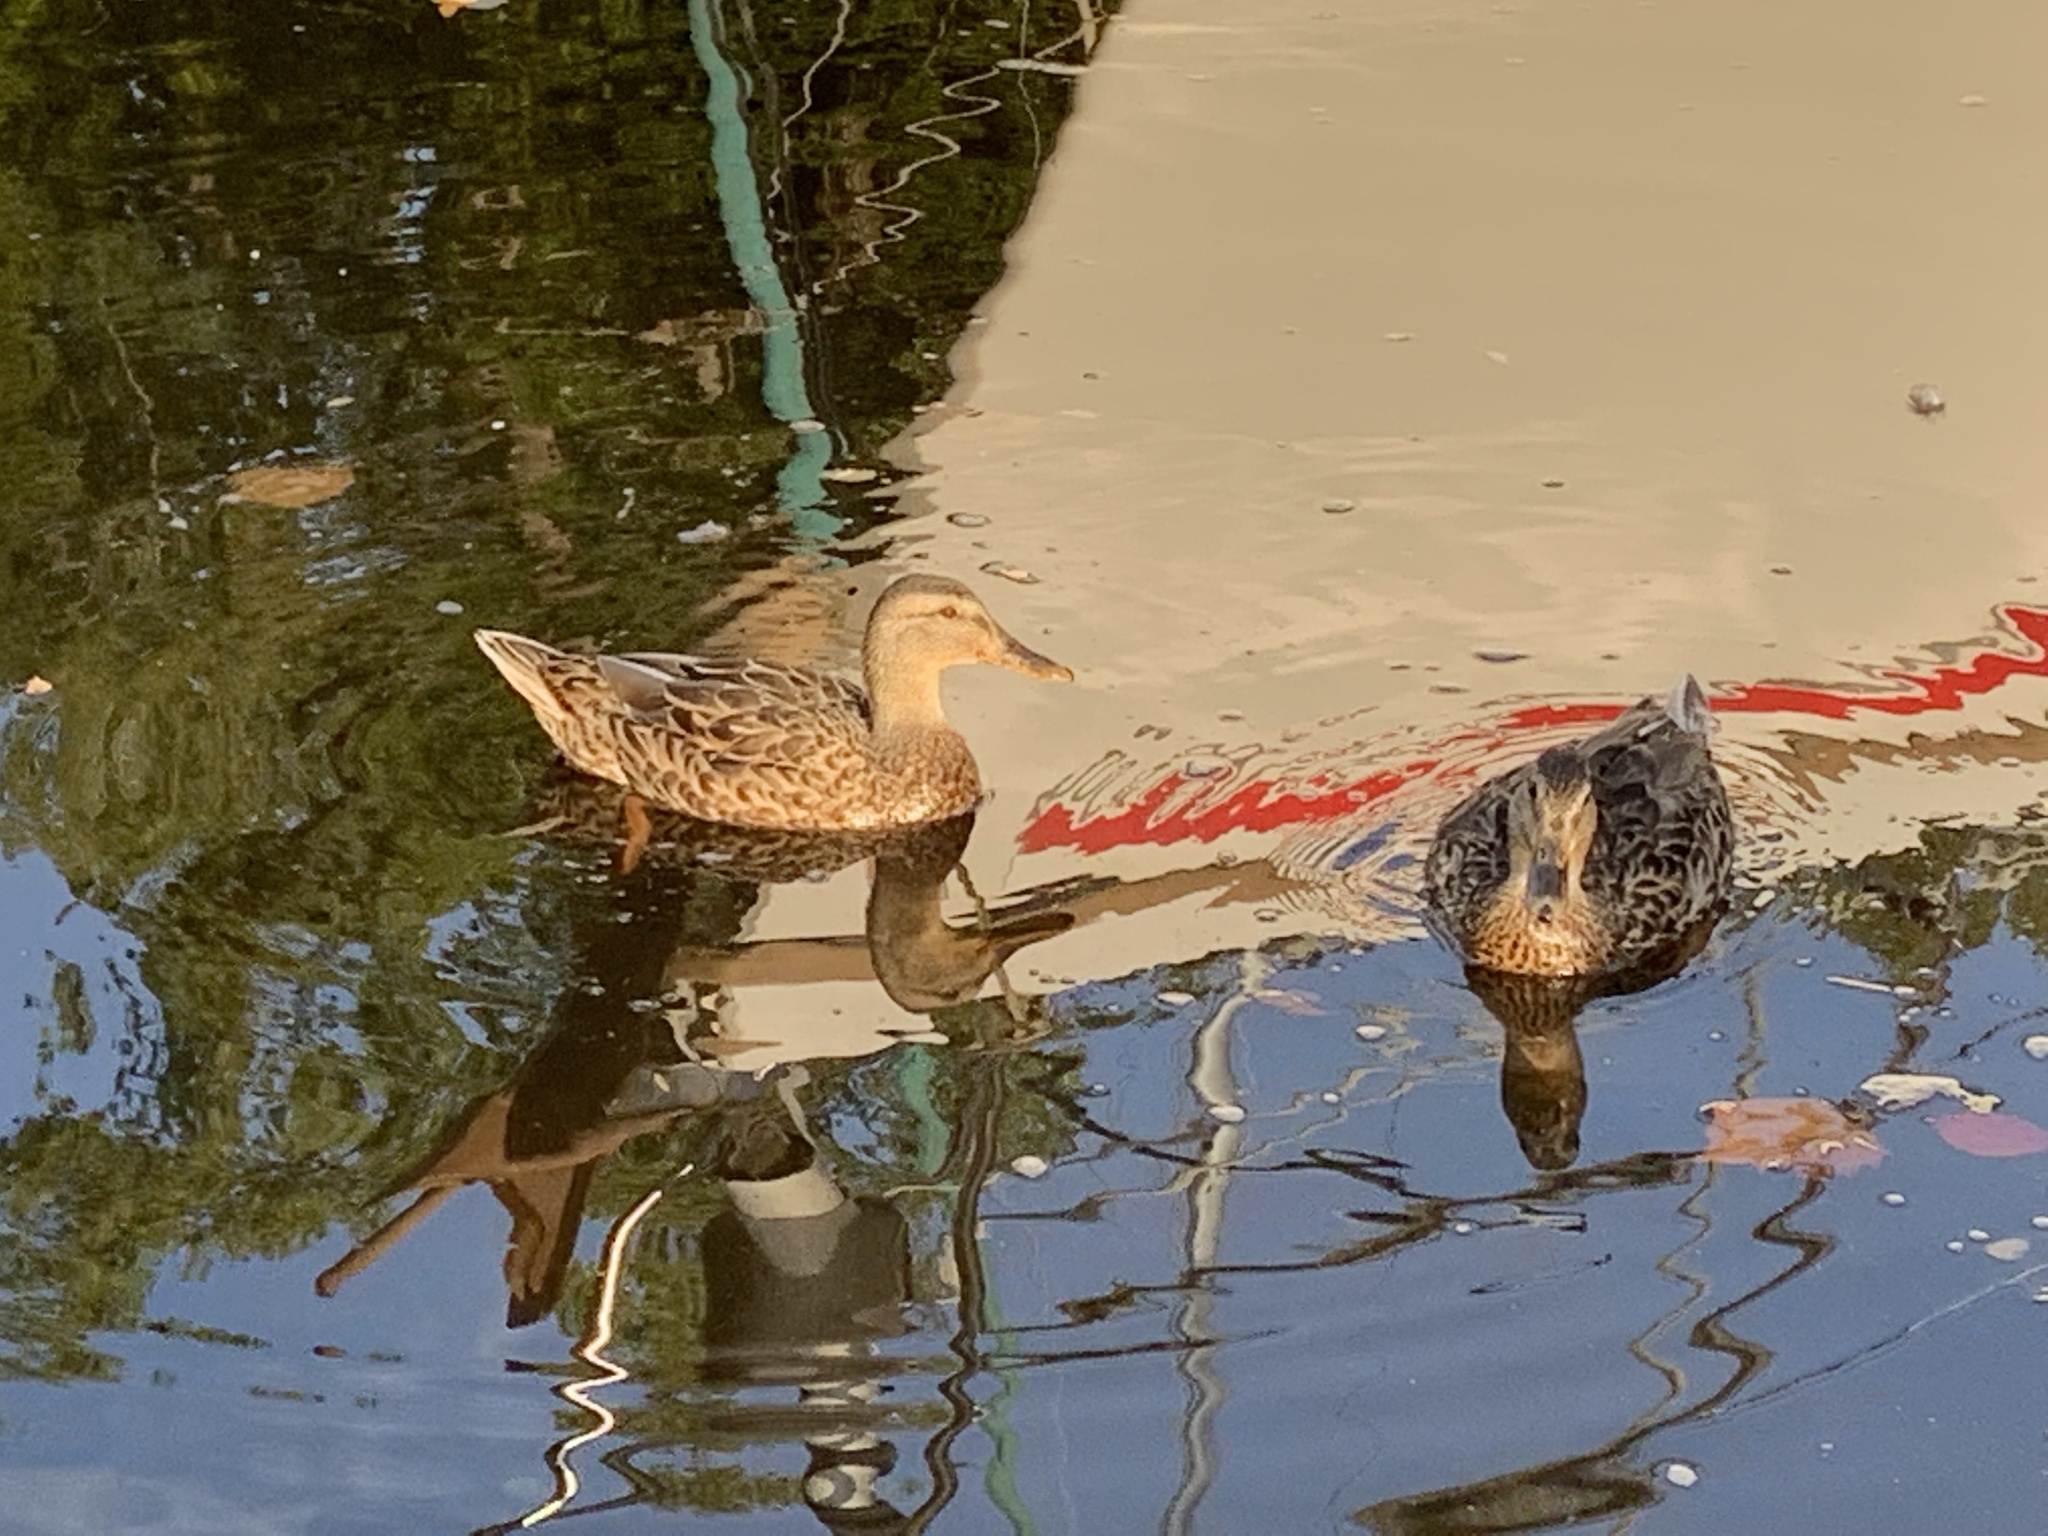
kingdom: Animalia
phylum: Chordata
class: Aves
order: Anseriformes
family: Anatidae
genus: Anas
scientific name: Anas platyrhynchos
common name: Mallard
